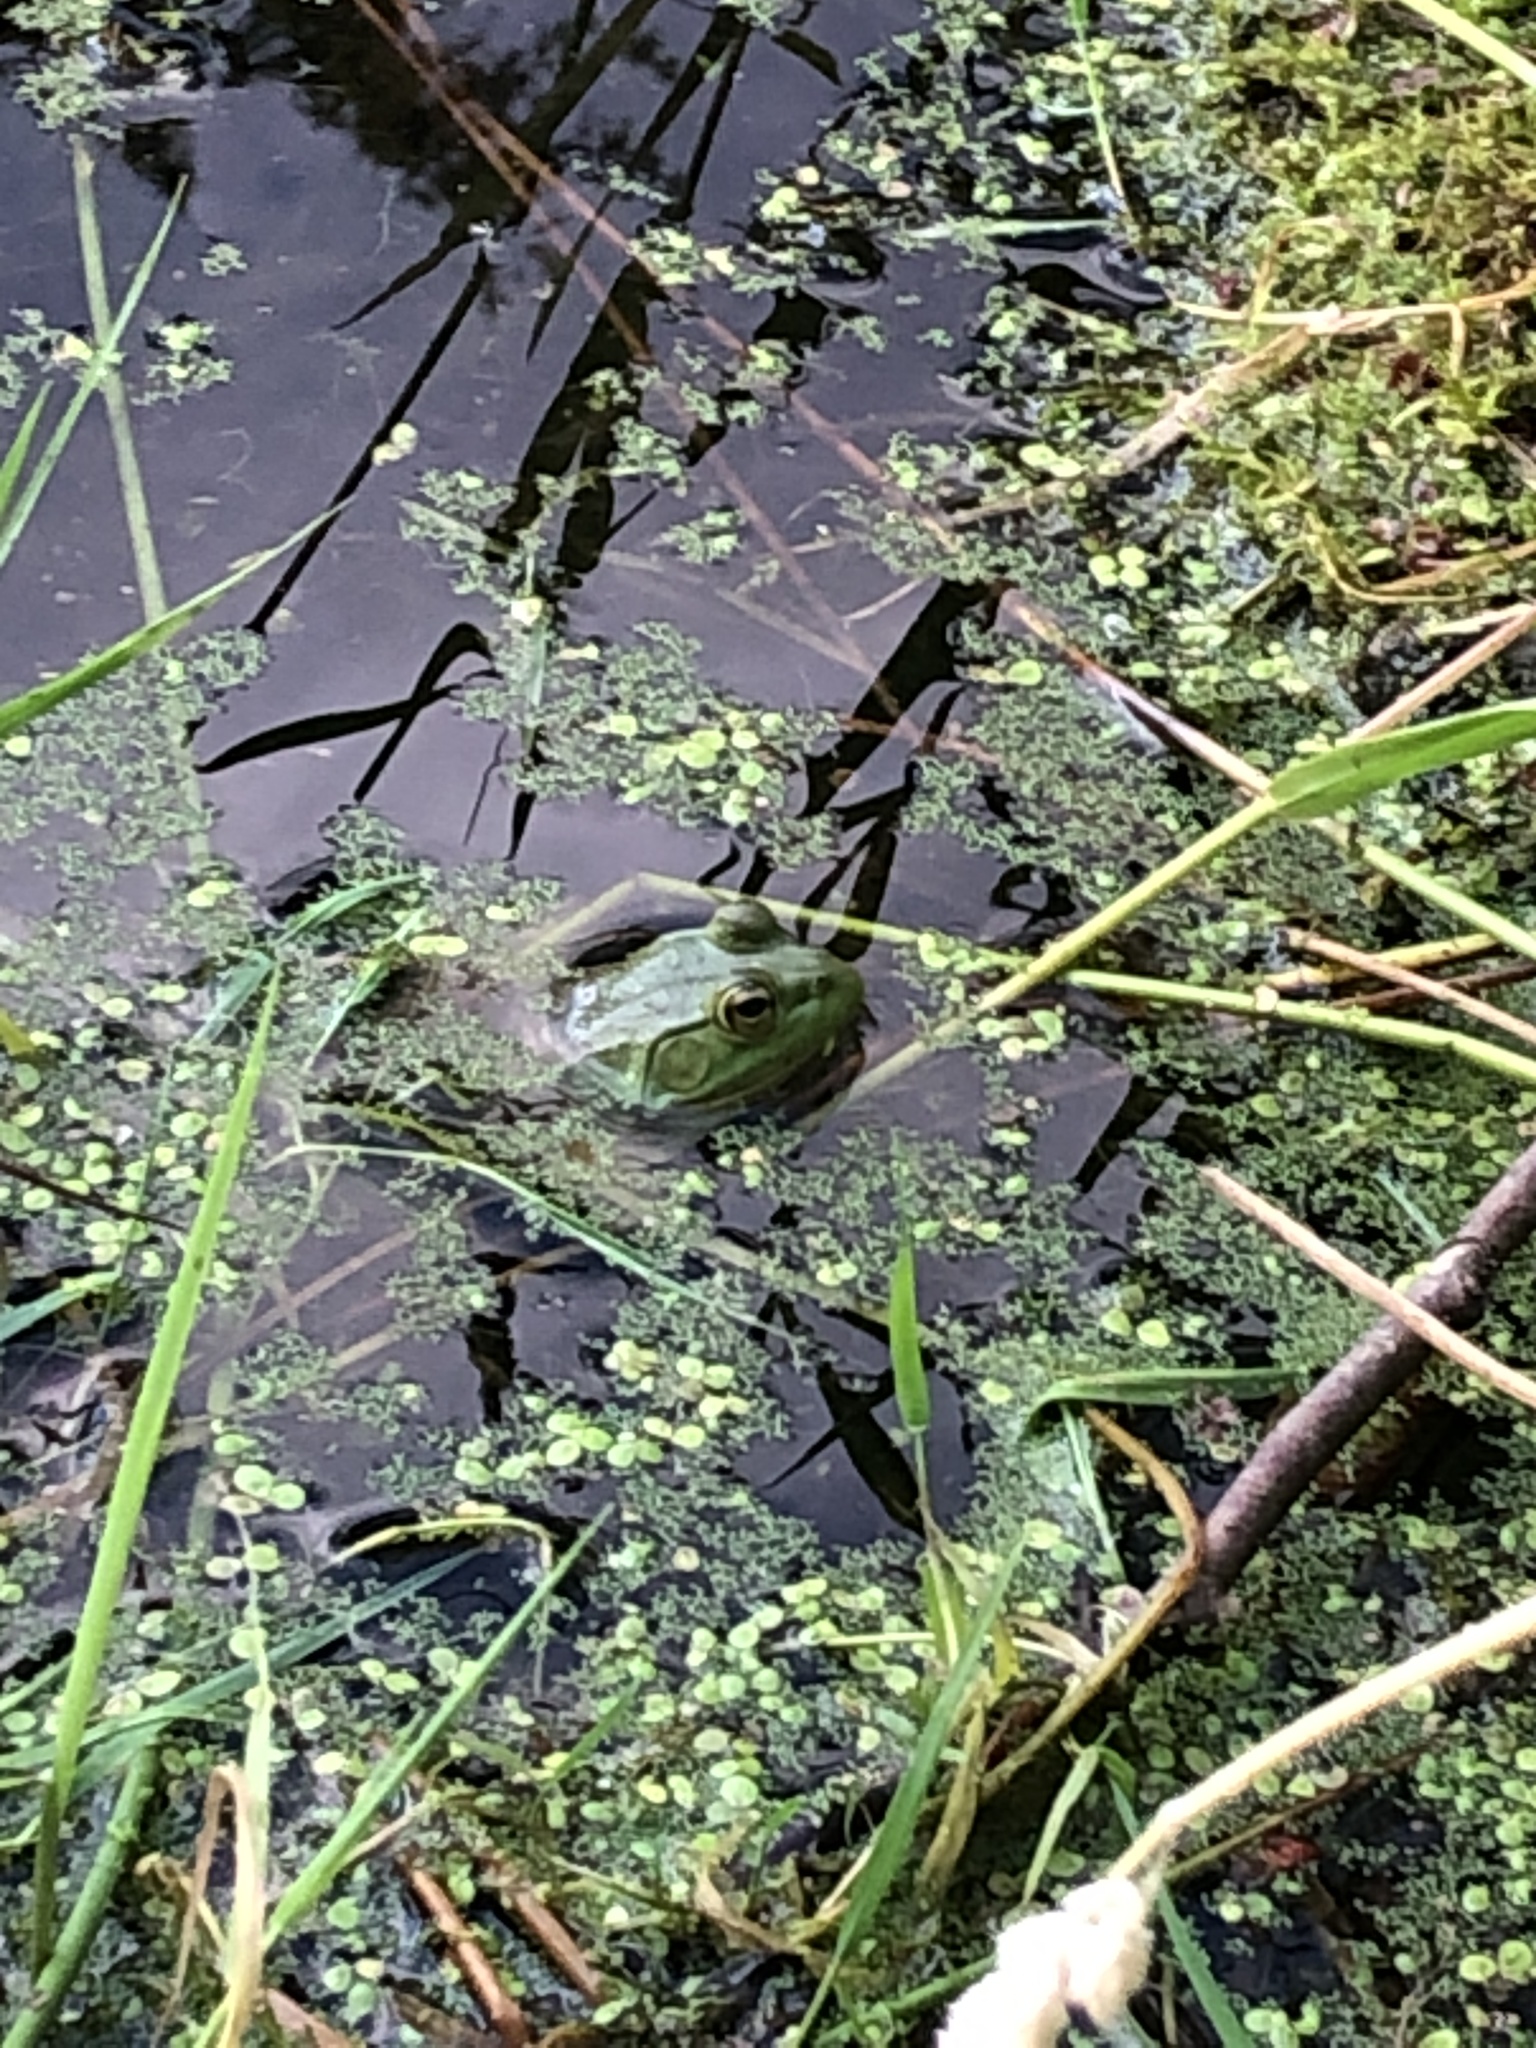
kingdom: Animalia
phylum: Chordata
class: Amphibia
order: Anura
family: Ranidae
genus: Lithobates
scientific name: Lithobates catesbeianus
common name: American bullfrog
